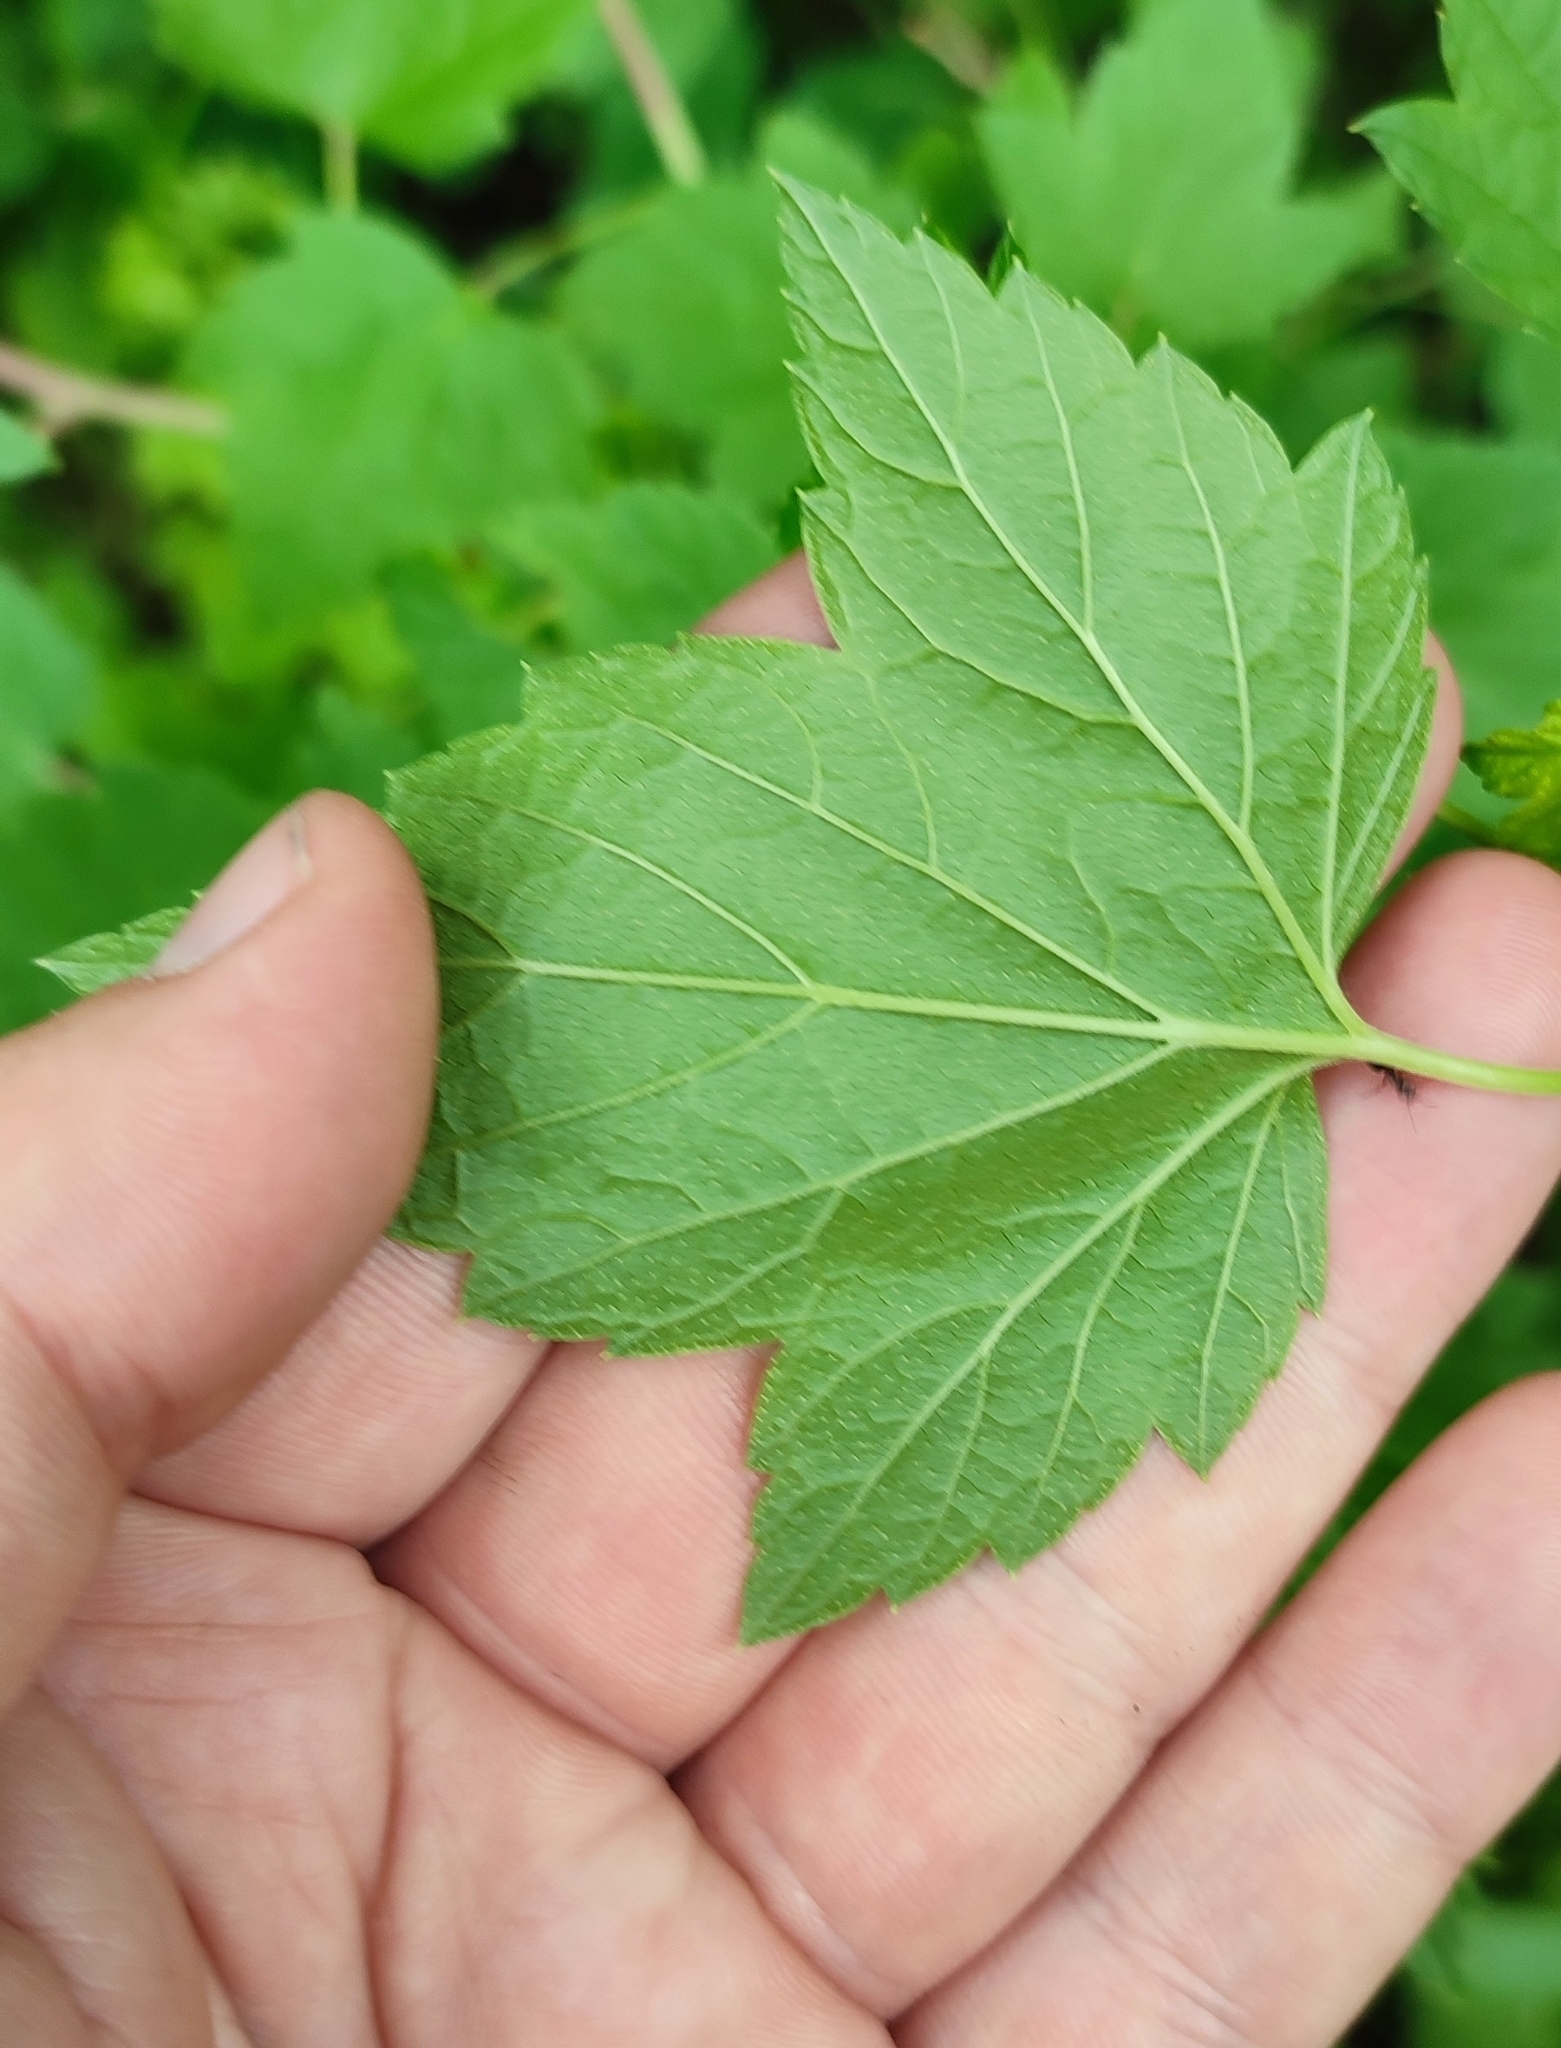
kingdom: Plantae
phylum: Tracheophyta
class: Magnoliopsida
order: Saxifragales
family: Grossulariaceae
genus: Ribes
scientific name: Ribes nigrum
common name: Black currant
